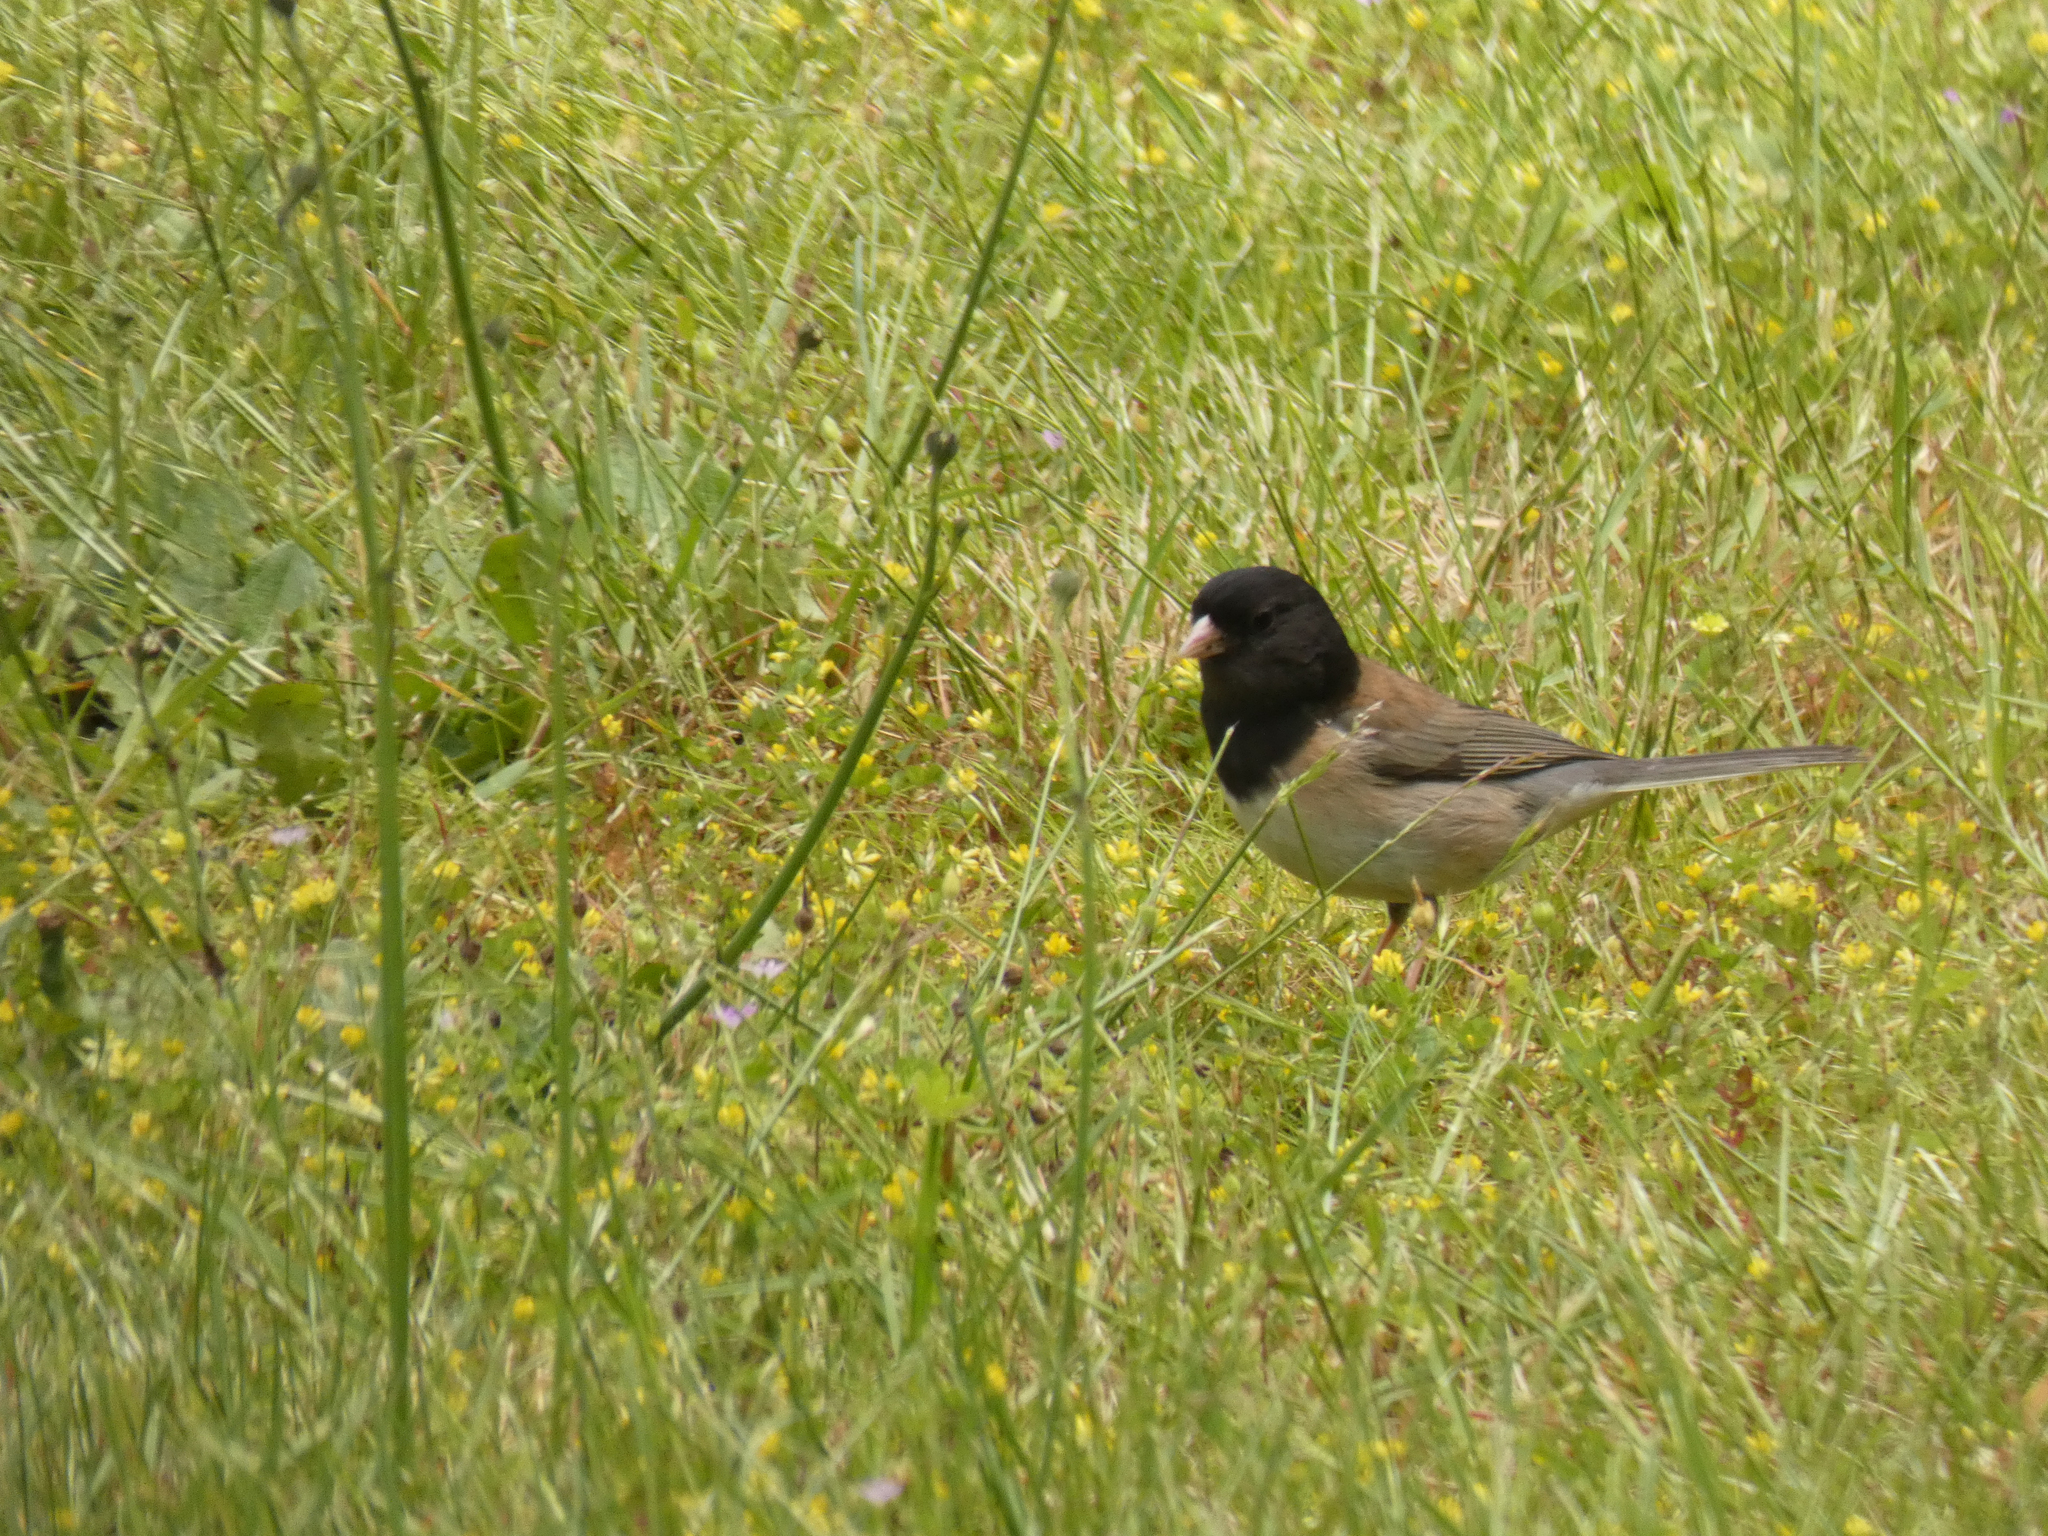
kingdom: Animalia
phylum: Chordata
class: Aves
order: Passeriformes
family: Passerellidae
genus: Junco
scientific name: Junco hyemalis
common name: Dark-eyed junco
